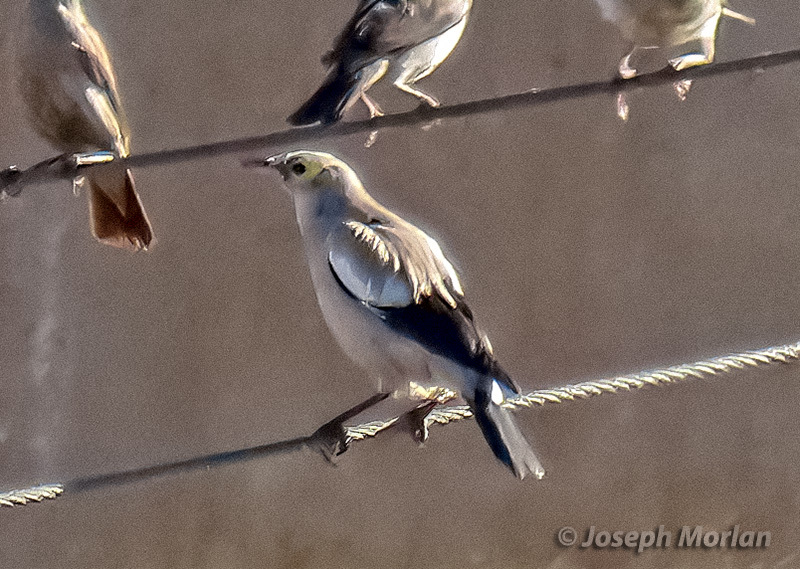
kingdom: Animalia
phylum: Chordata
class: Aves
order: Passeriformes
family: Sturnidae
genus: Creatophora
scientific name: Creatophora cinerea
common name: Wattled starling
